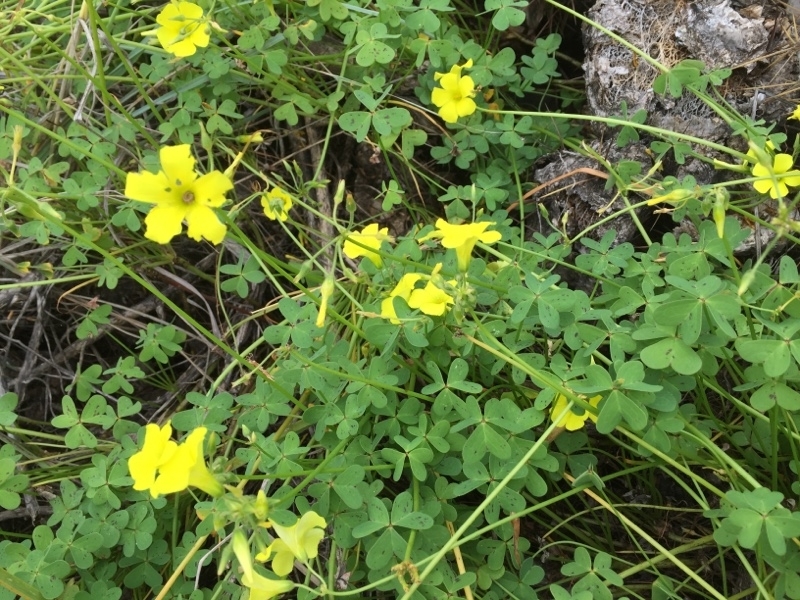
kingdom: Plantae
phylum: Tracheophyta
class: Magnoliopsida
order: Oxalidales
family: Oxalidaceae
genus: Oxalis
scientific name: Oxalis pes-caprae
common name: Bermuda-buttercup
